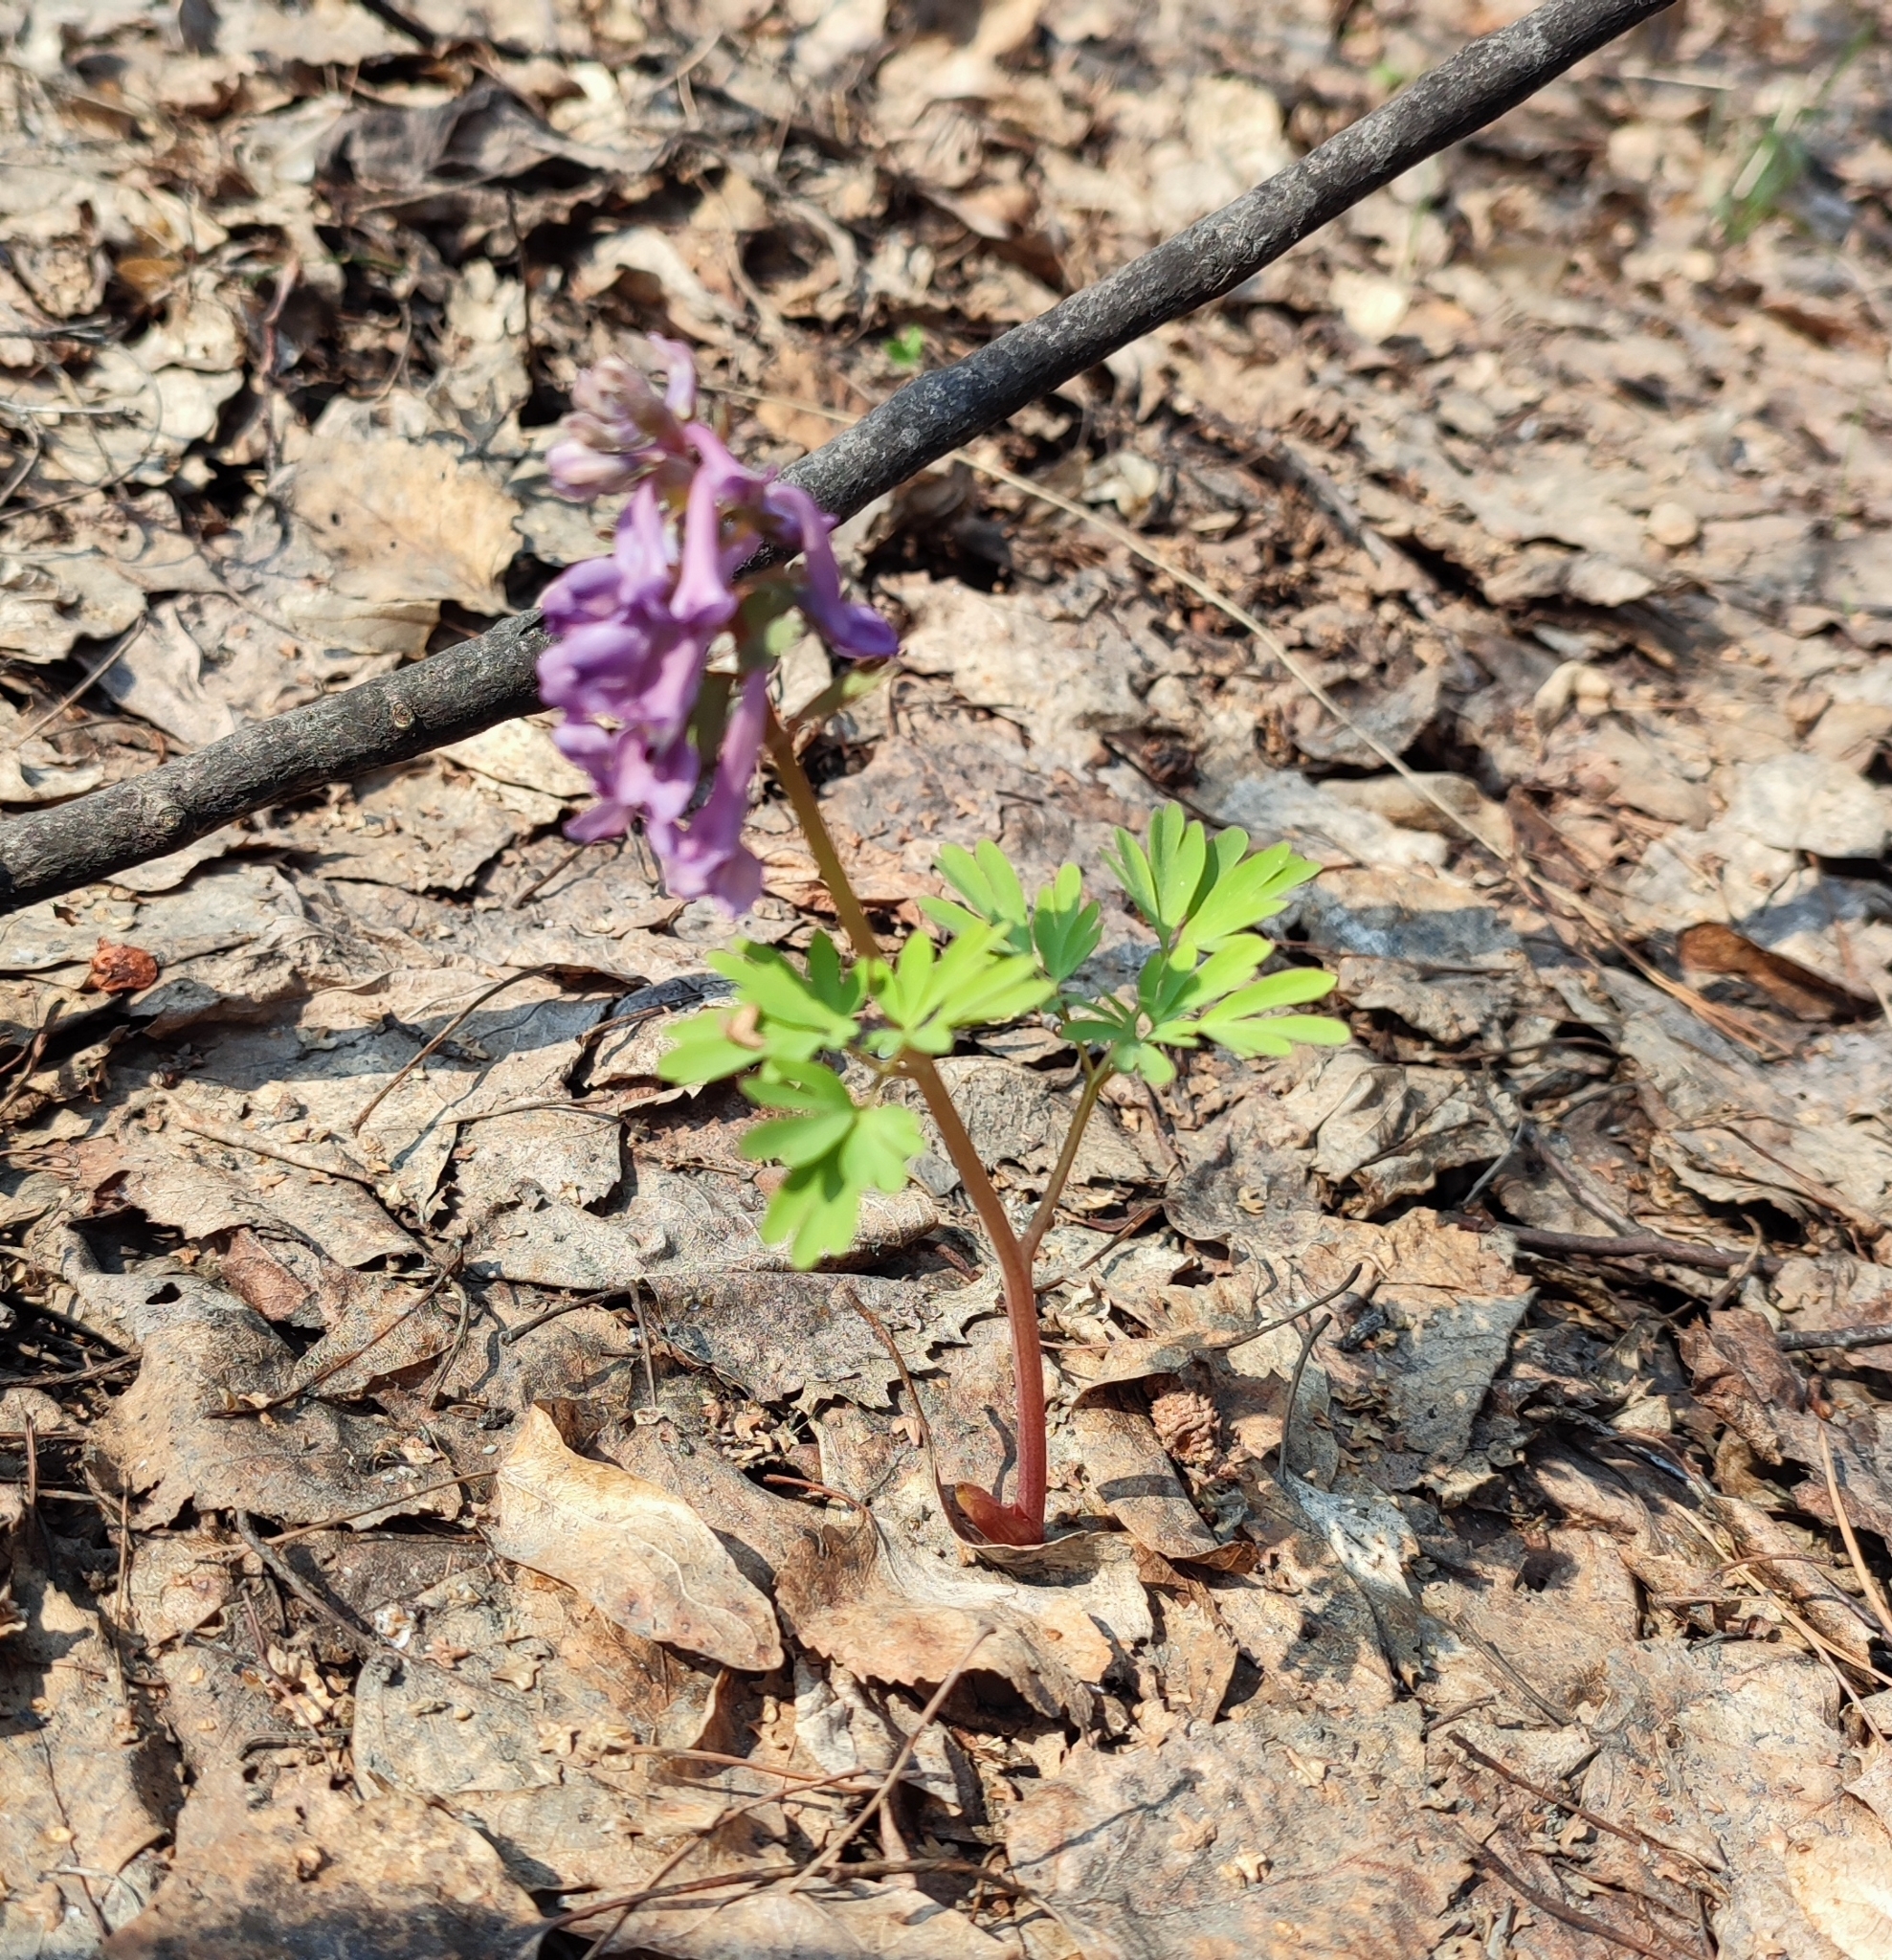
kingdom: Plantae
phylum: Tracheophyta
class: Magnoliopsida
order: Ranunculales
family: Papaveraceae
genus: Corydalis
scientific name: Corydalis solida
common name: Bird-in-a-bush
